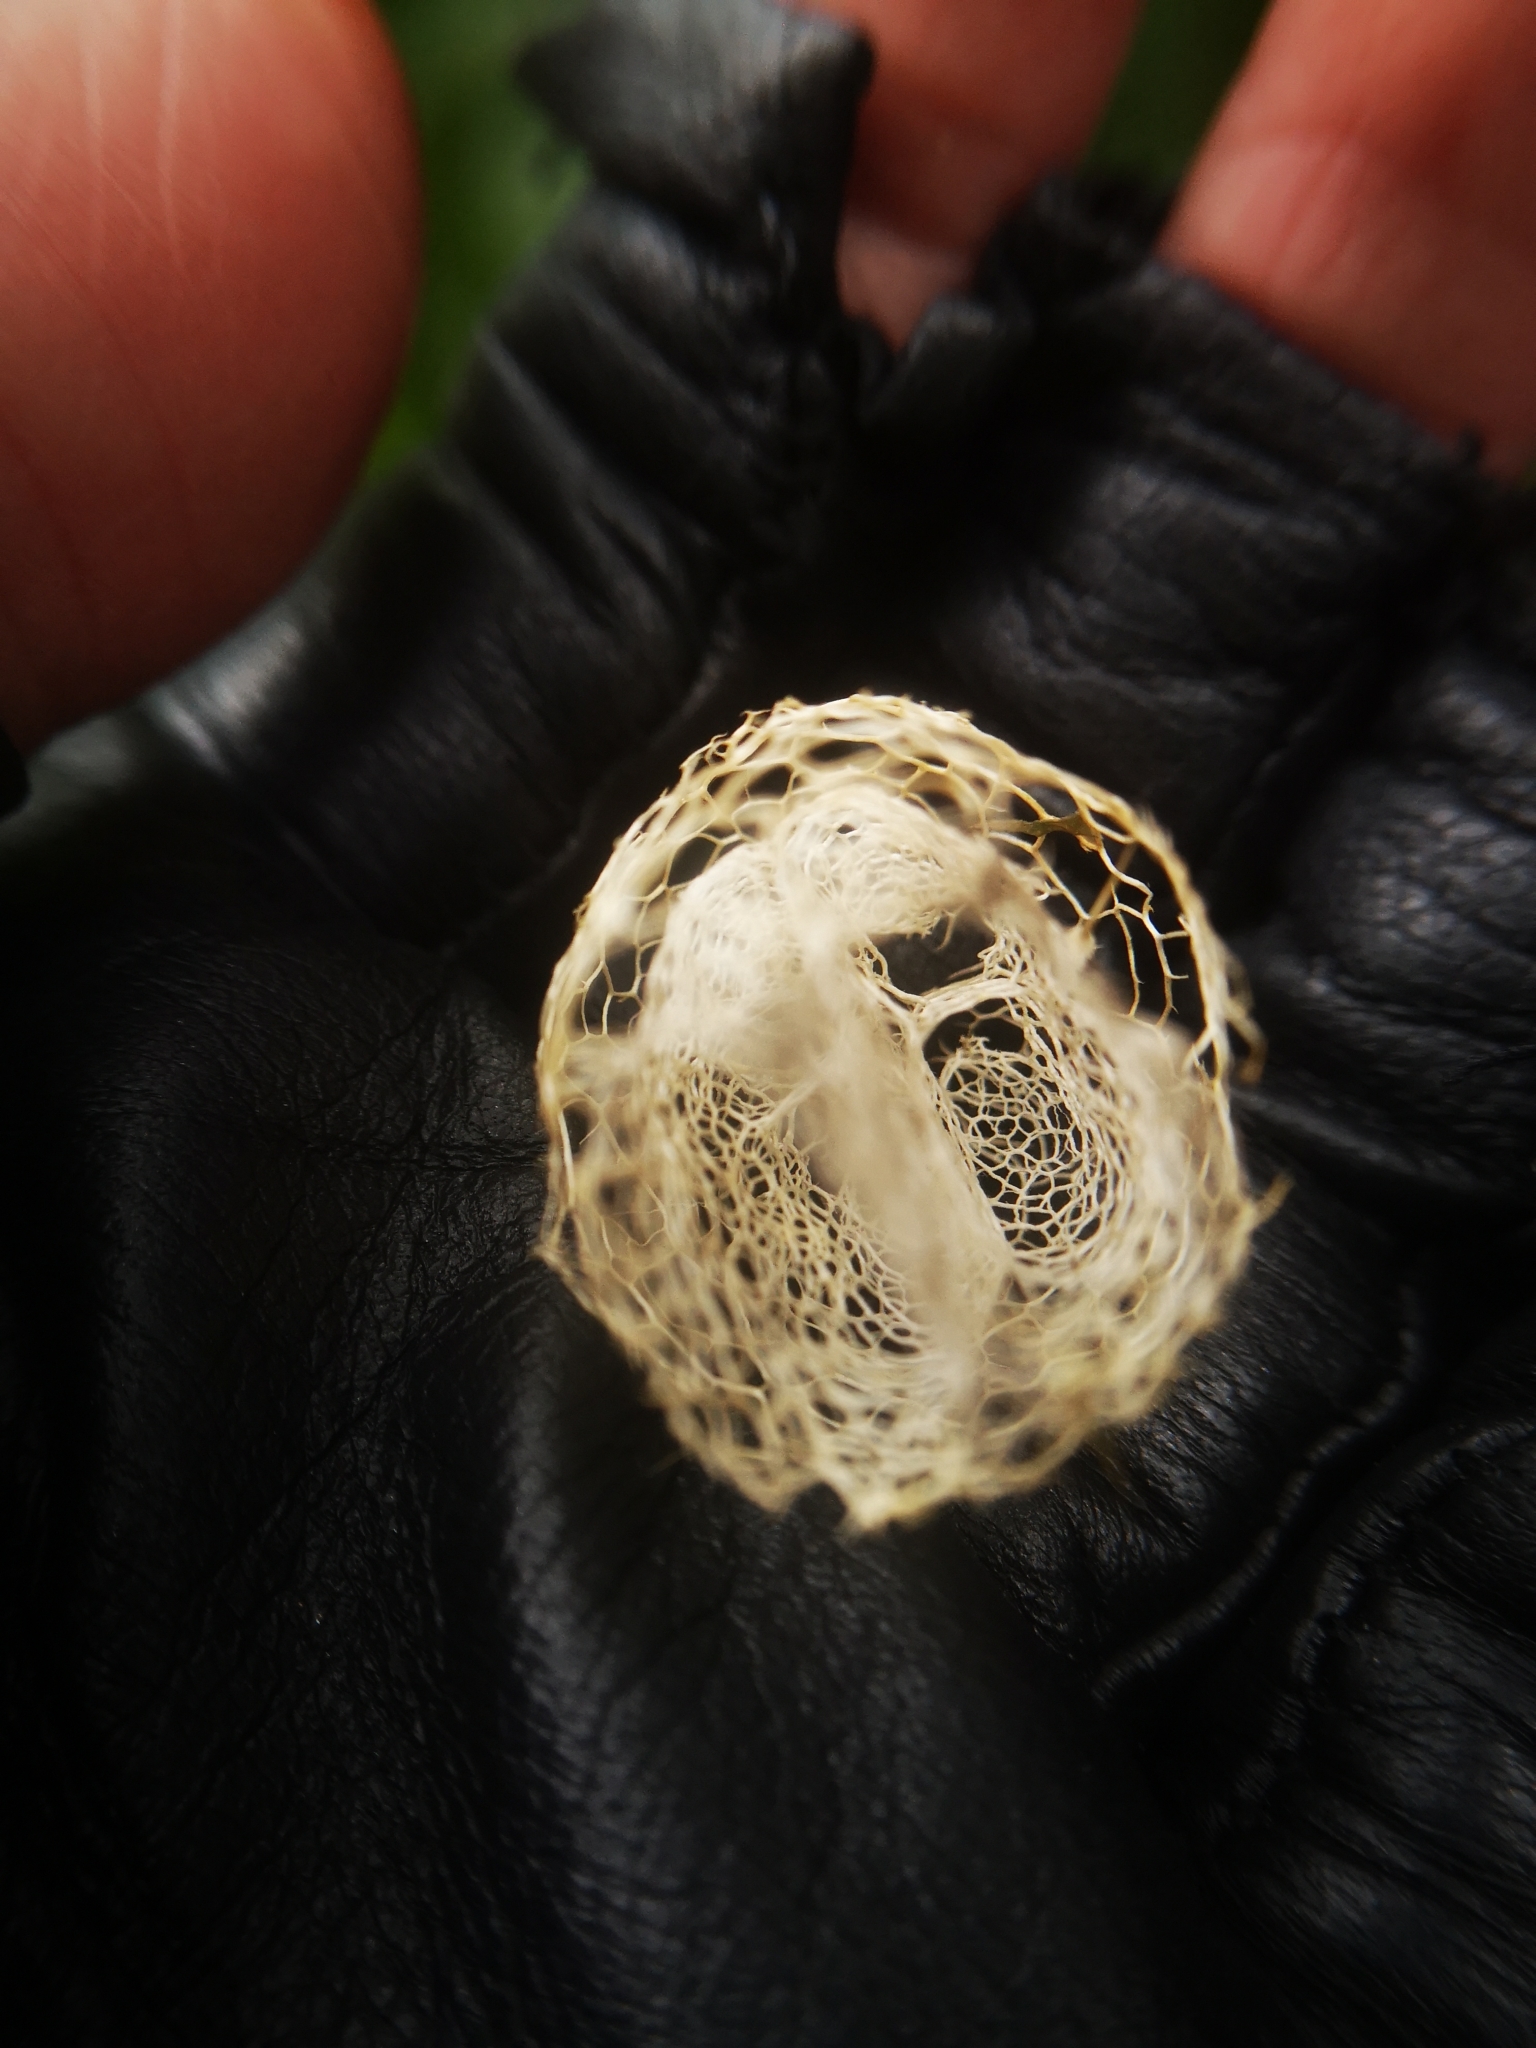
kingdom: Plantae
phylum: Tracheophyta
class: Magnoliopsida
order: Cucurbitales
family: Cucurbitaceae
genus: Echinocystis
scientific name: Echinocystis lobata
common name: Wild cucumber
